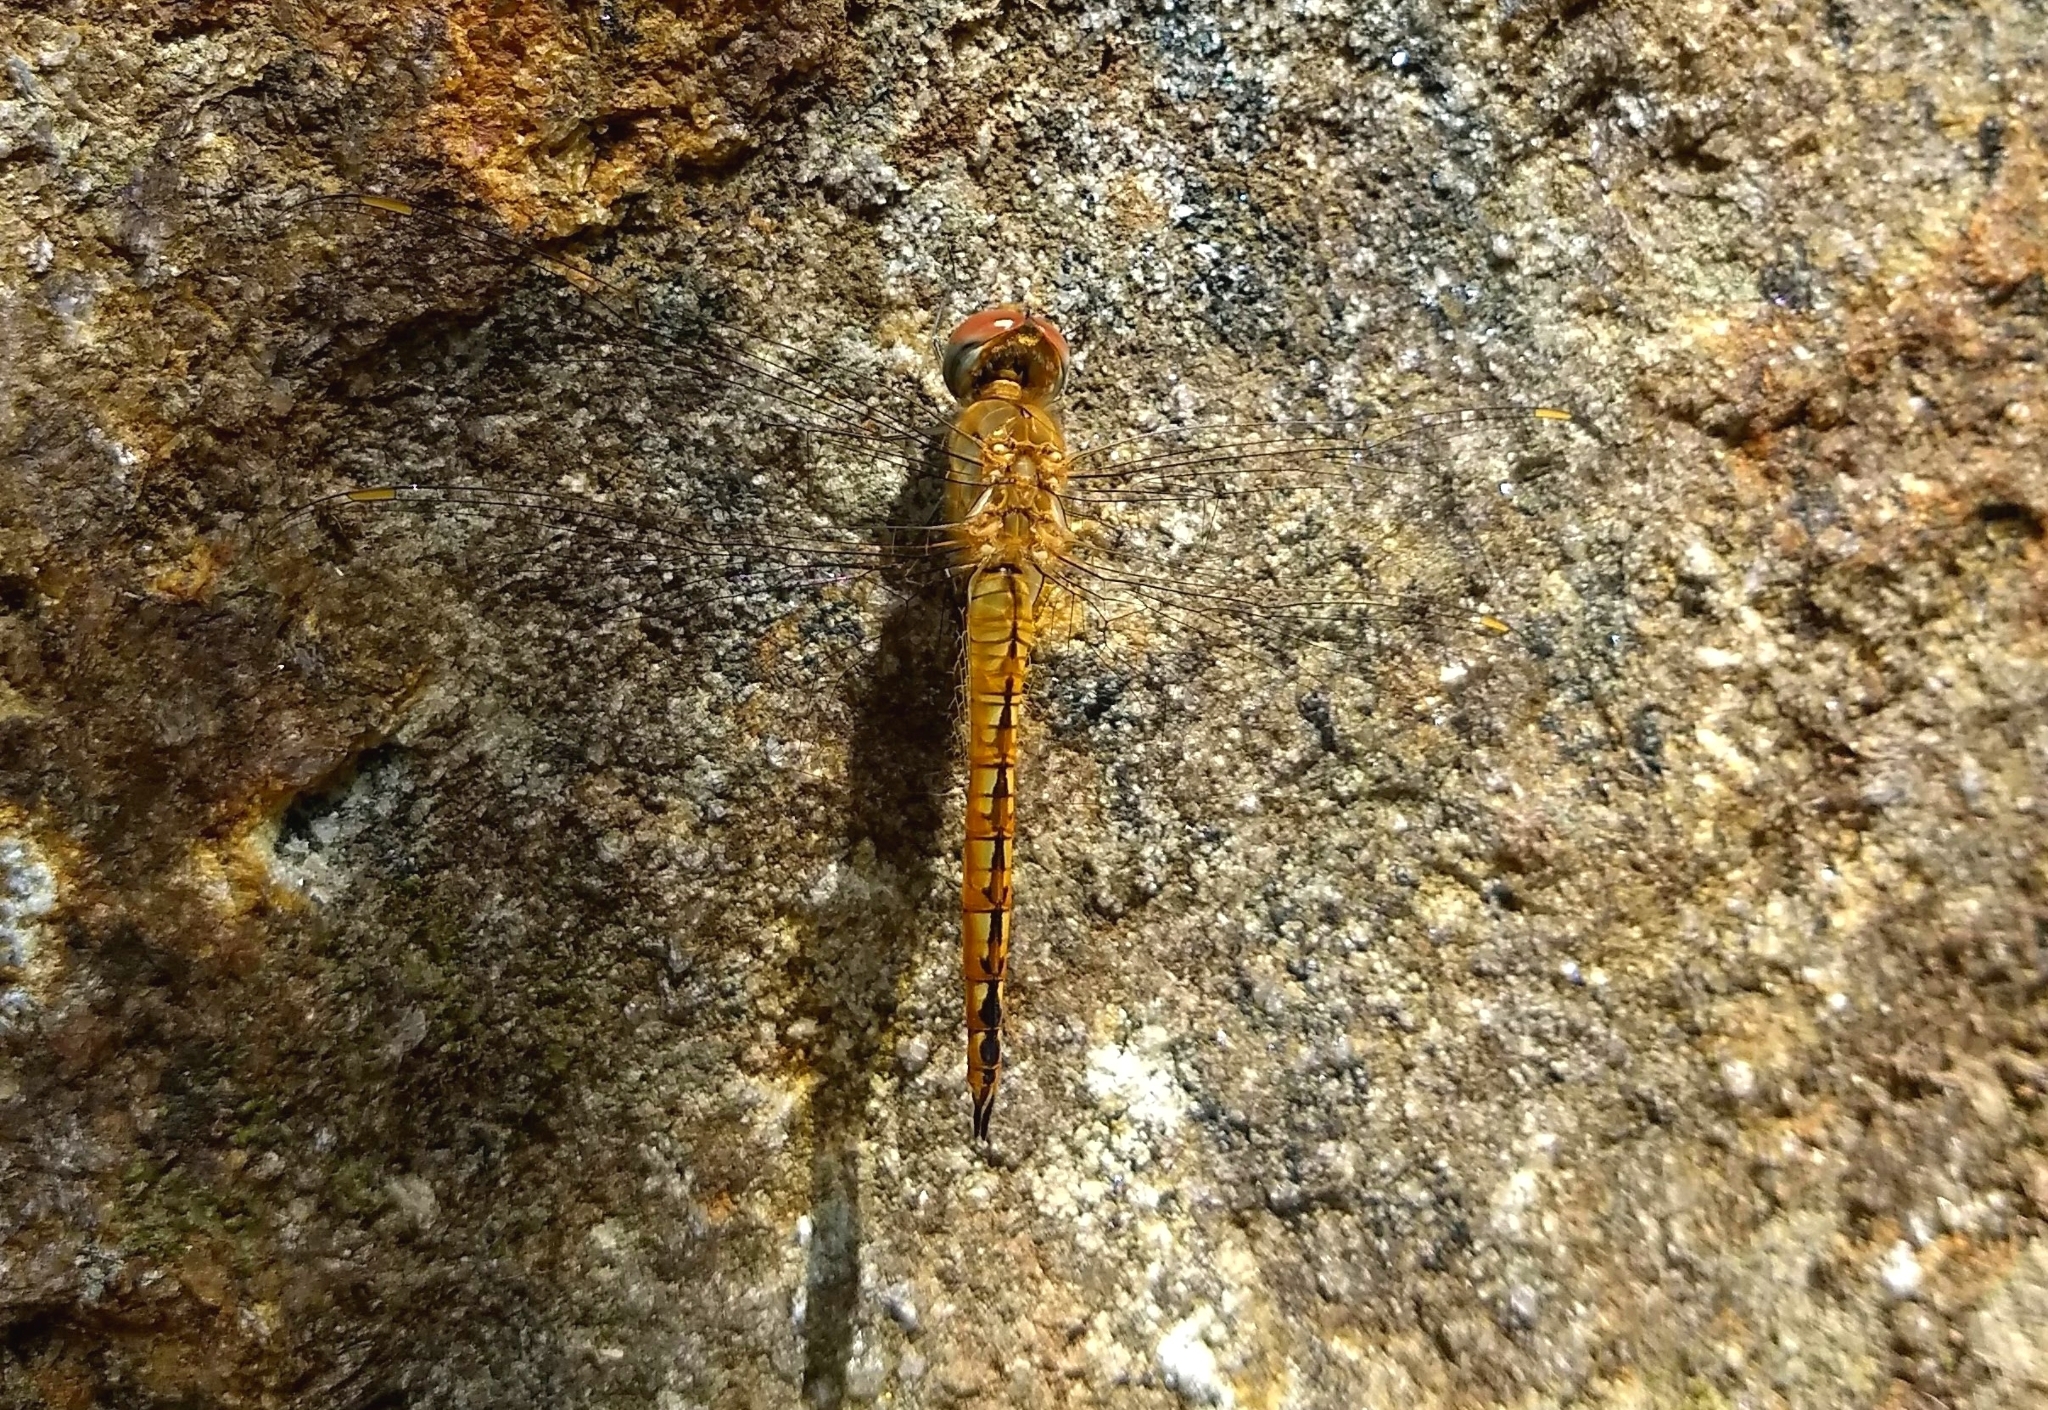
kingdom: Animalia
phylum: Arthropoda
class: Insecta
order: Odonata
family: Libellulidae
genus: Pantala
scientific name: Pantala flavescens
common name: Wandering glider
